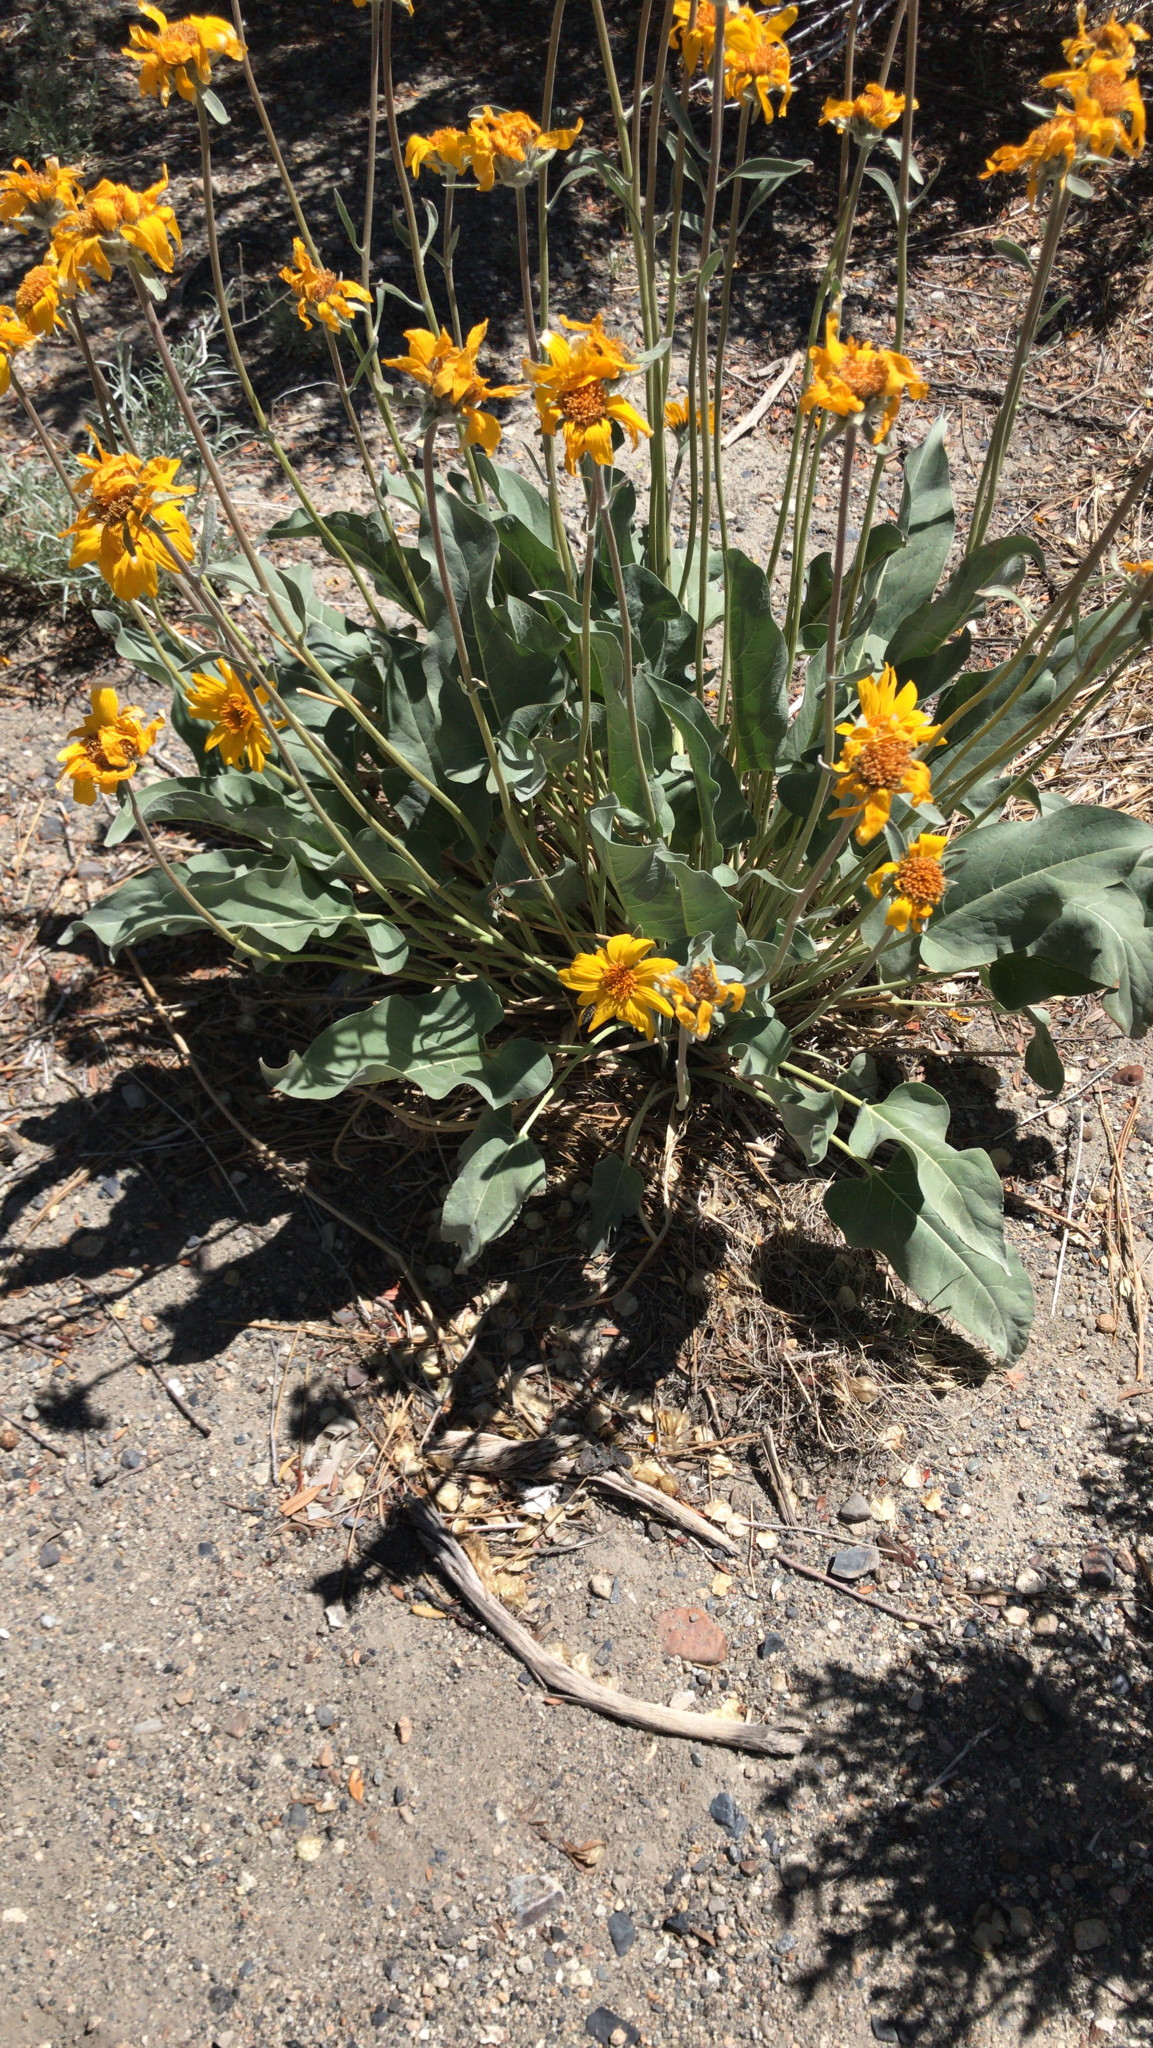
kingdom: Plantae
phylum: Tracheophyta
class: Magnoliopsida
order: Asterales
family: Asteraceae
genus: Wyethia
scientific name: Wyethia sagittata
